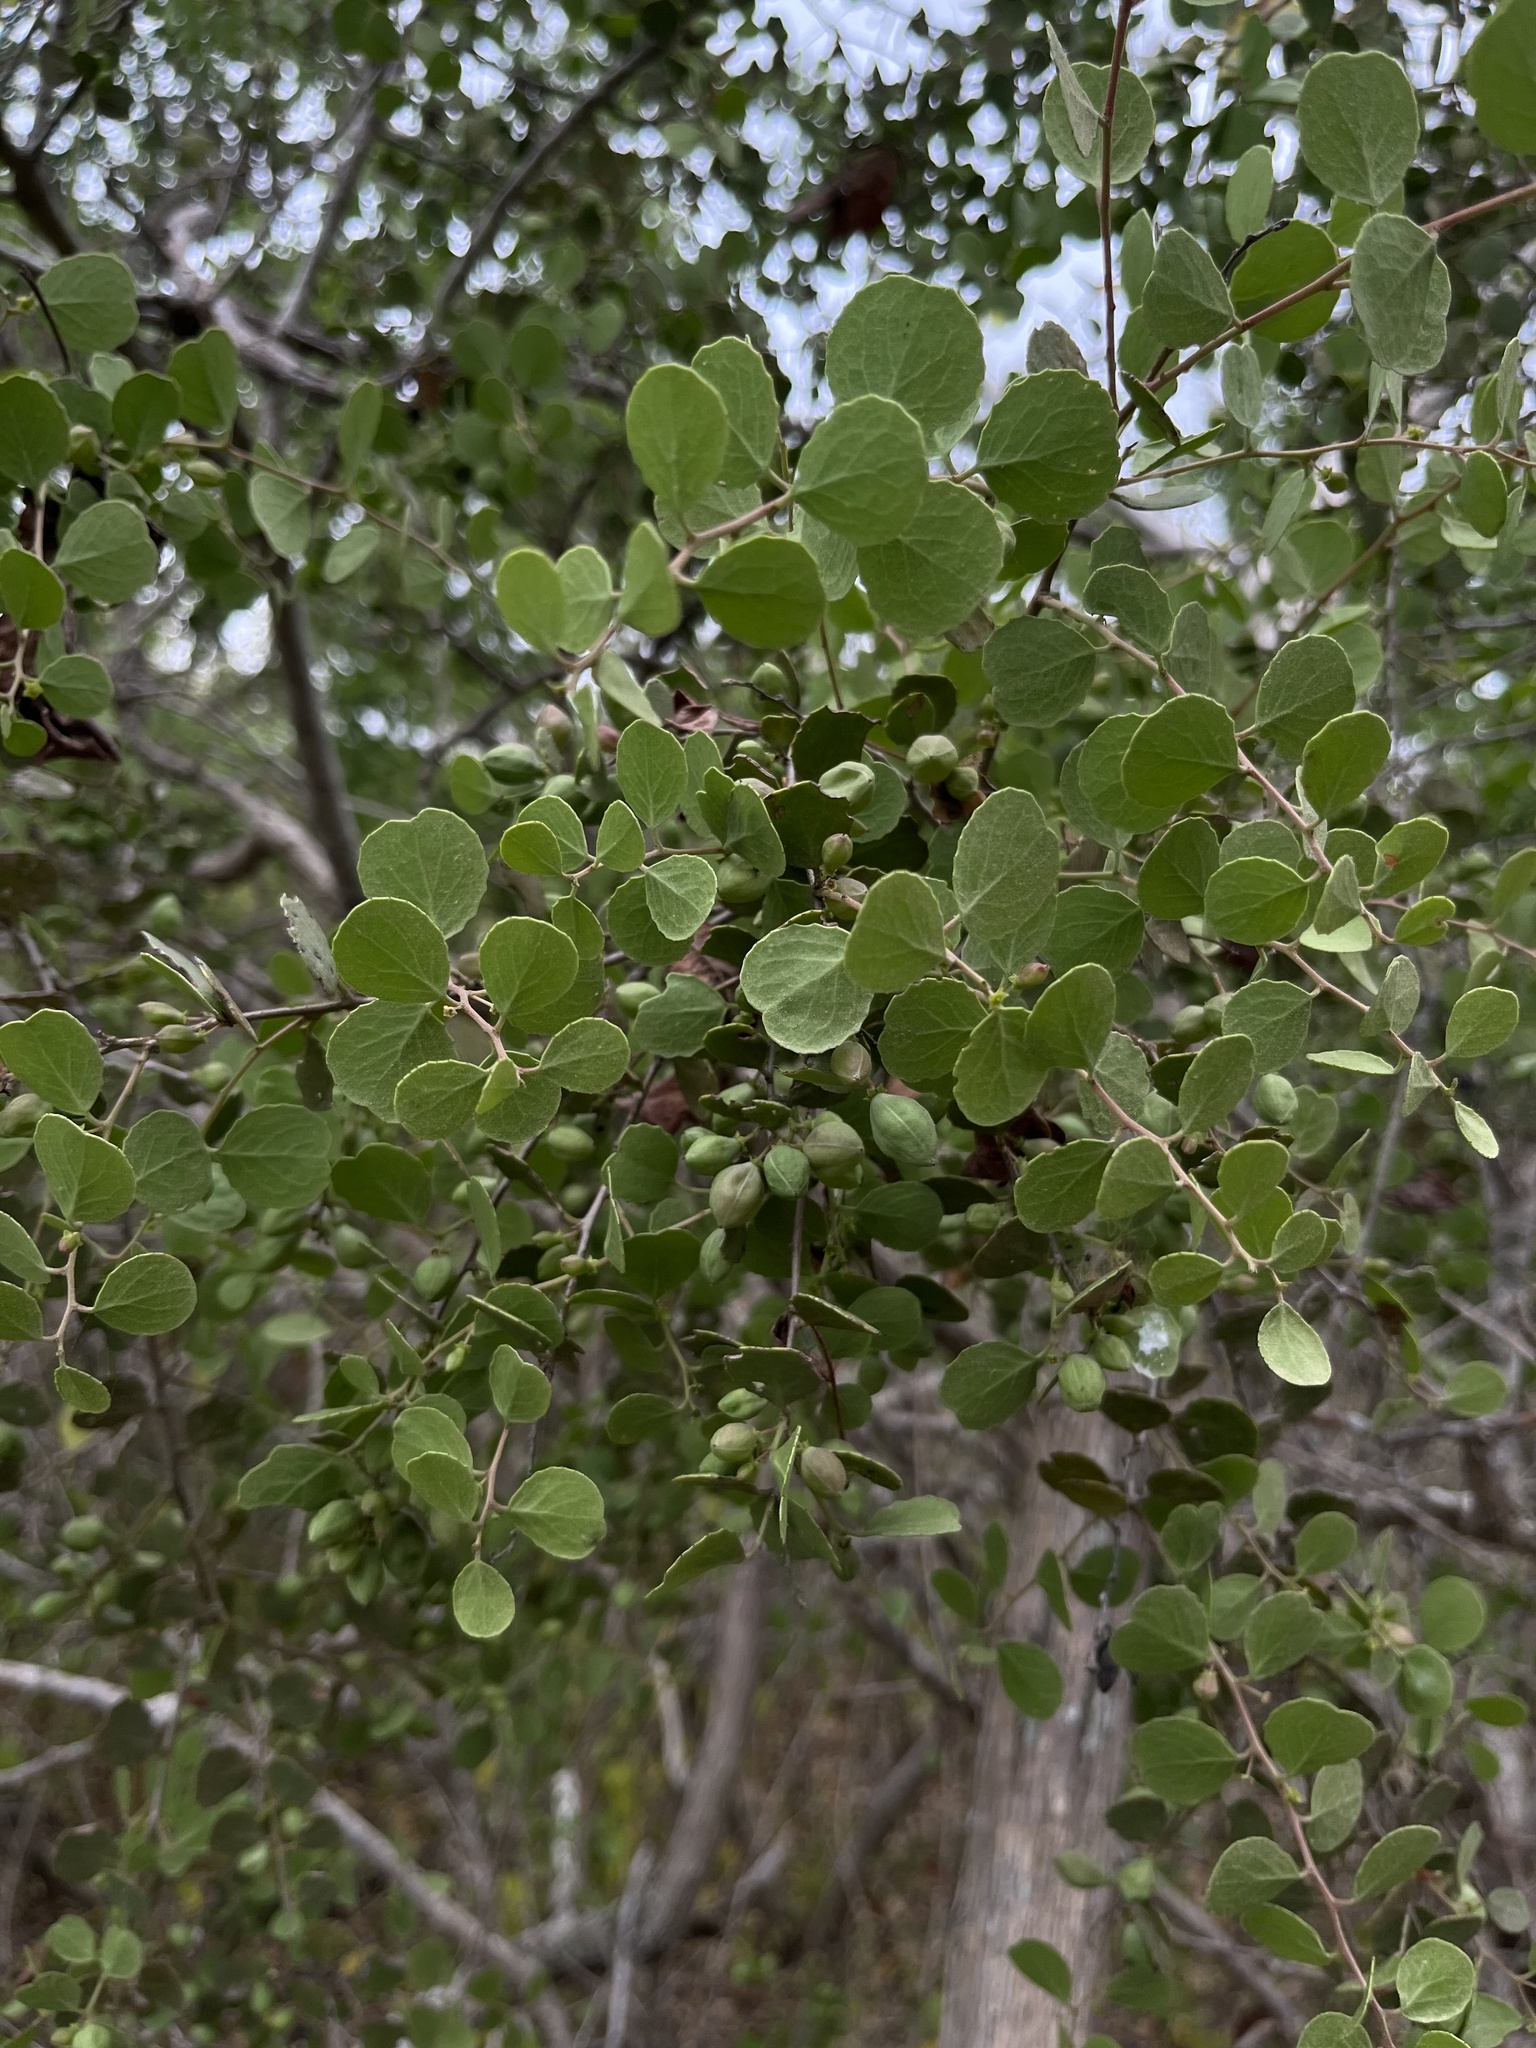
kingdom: Plantae
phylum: Tracheophyta
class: Magnoliopsida
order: Celastrales
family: Celastraceae
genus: Tricerma
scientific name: Tricerma octogonum
